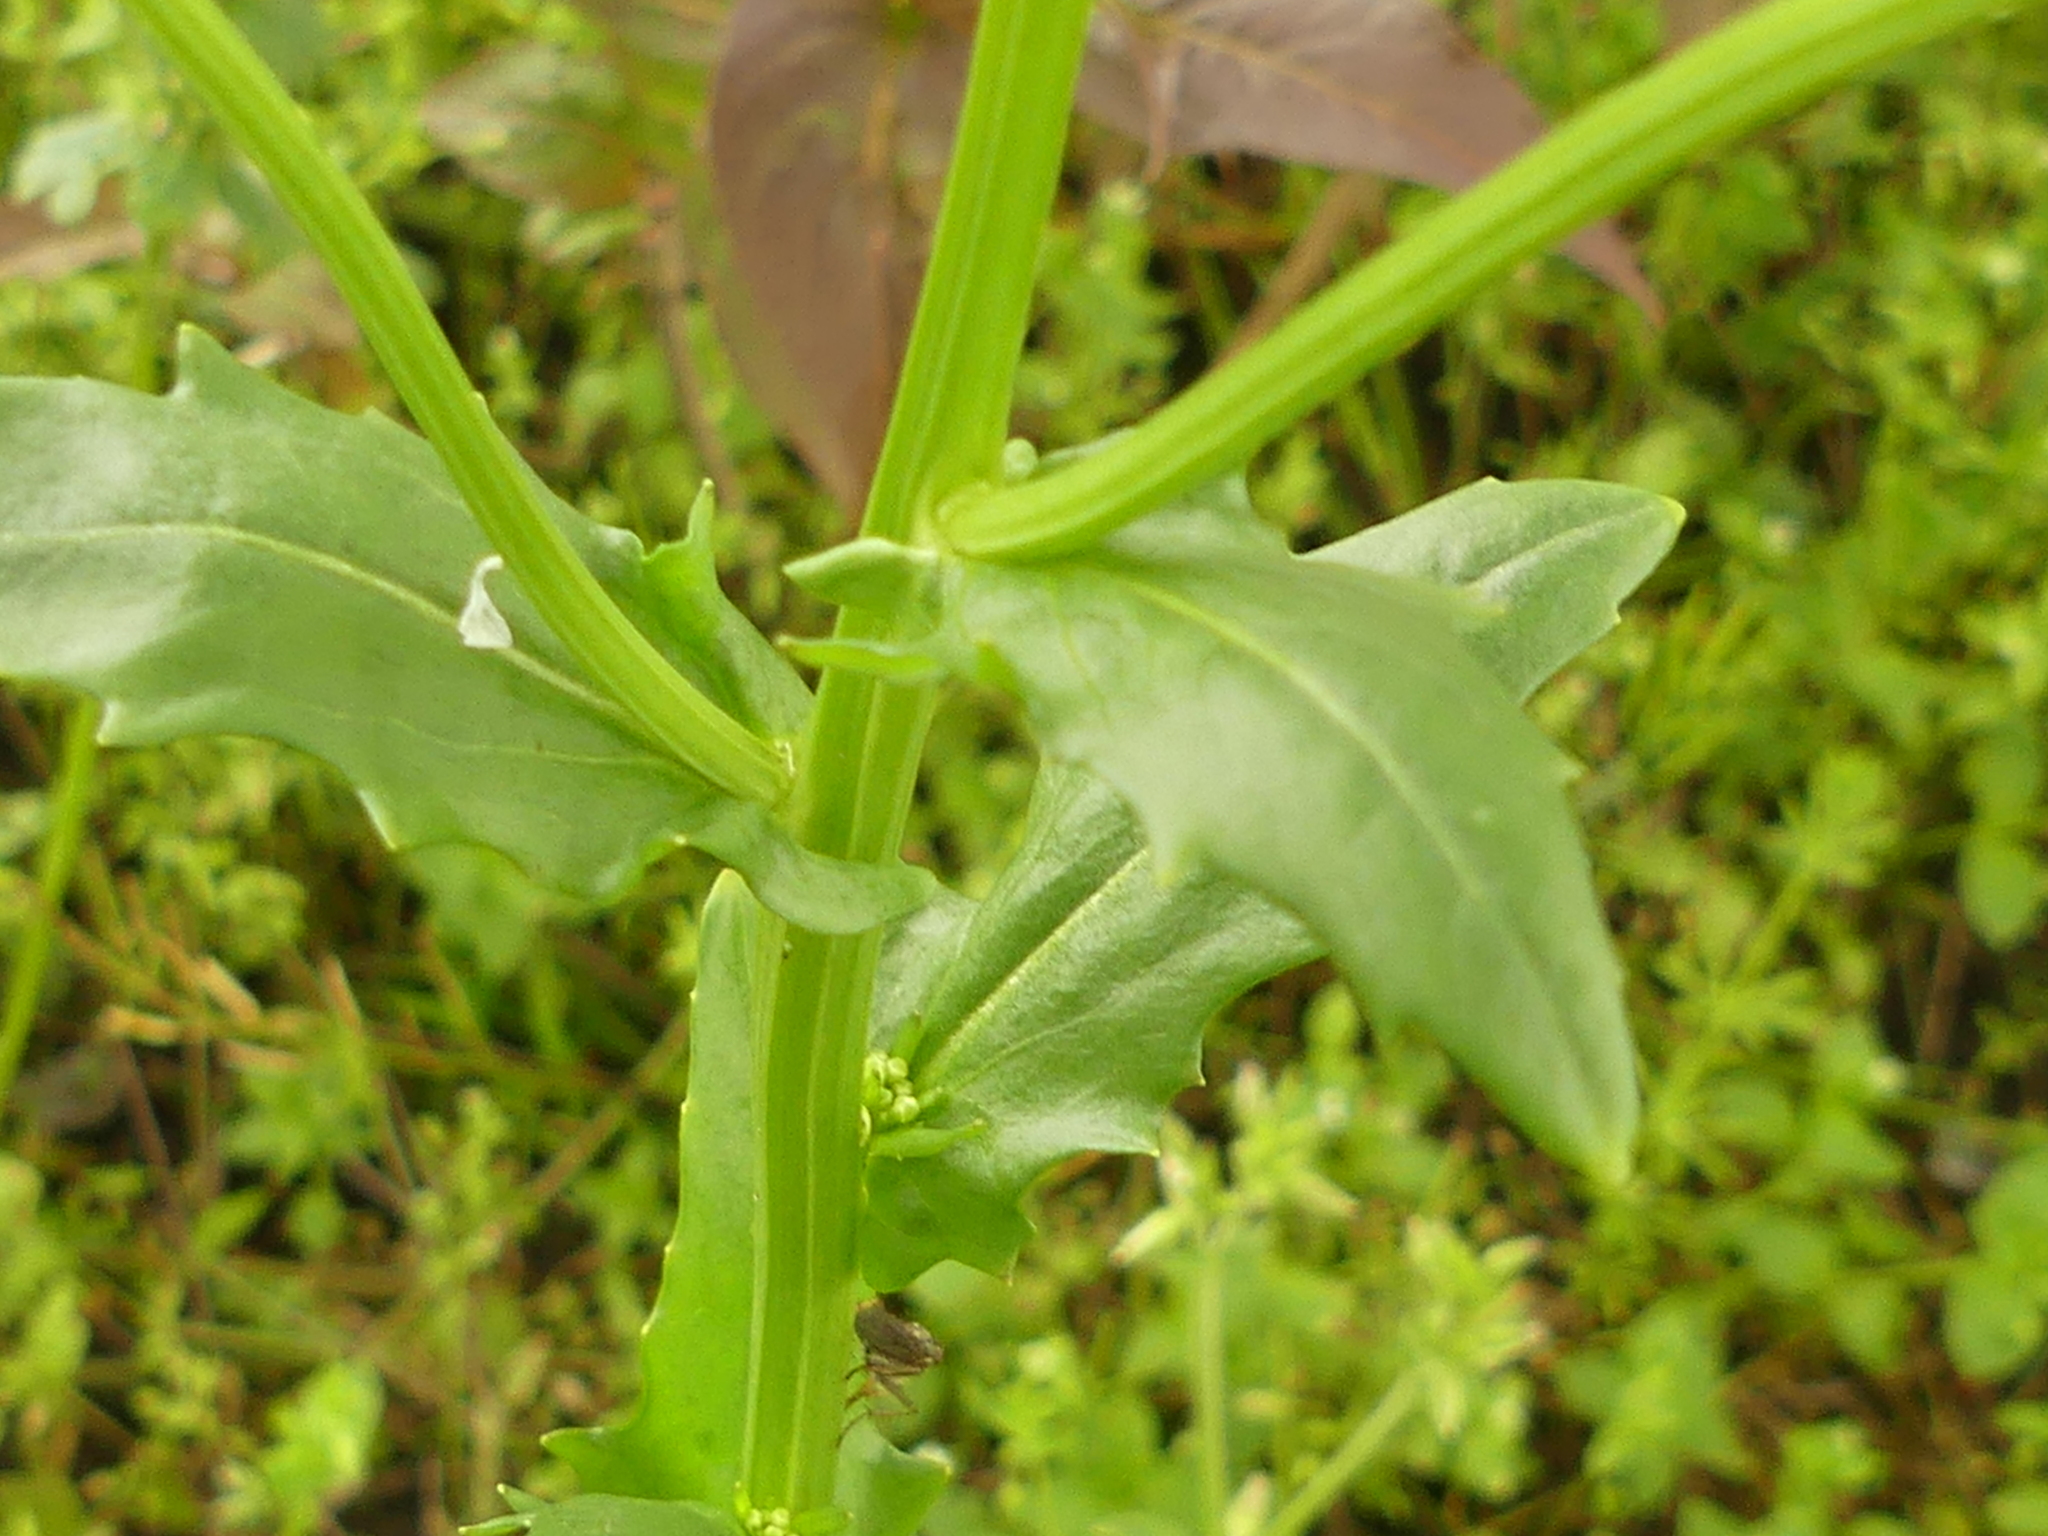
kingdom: Plantae
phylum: Tracheophyta
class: Magnoliopsida
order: Brassicales
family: Brassicaceae
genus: Thlaspi
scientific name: Thlaspi arvense
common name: Field pennycress
